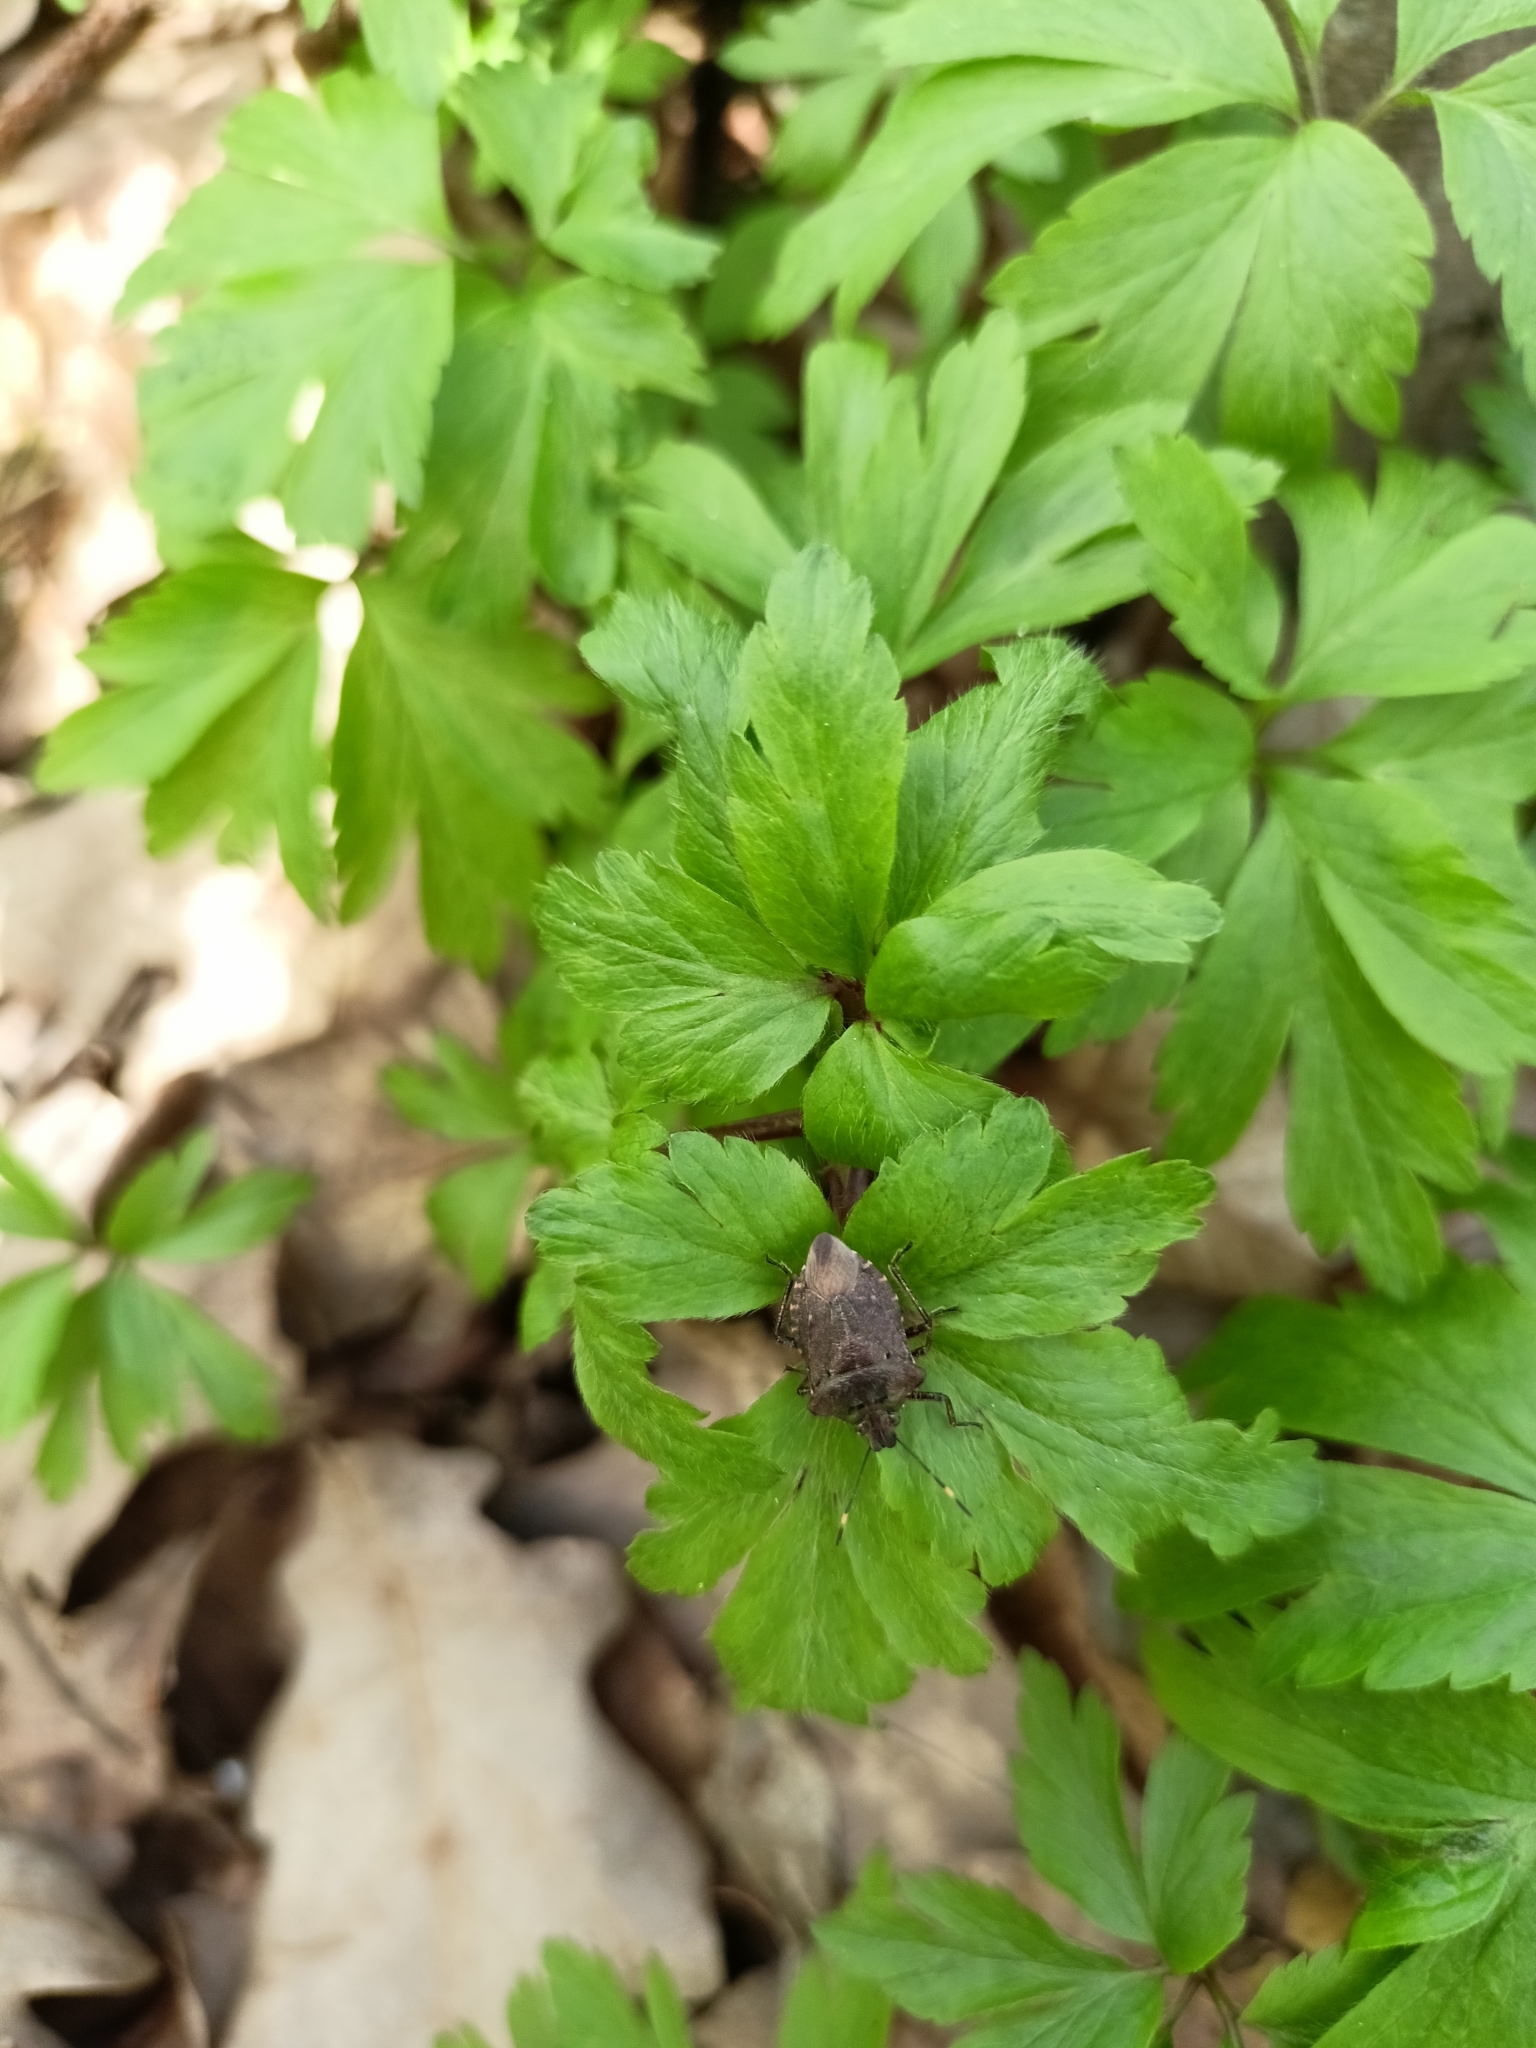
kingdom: Animalia
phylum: Arthropoda
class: Insecta
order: Hemiptera
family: Pentatomidae
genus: Troilus
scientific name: Troilus luridus
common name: Bronze shieldbug
